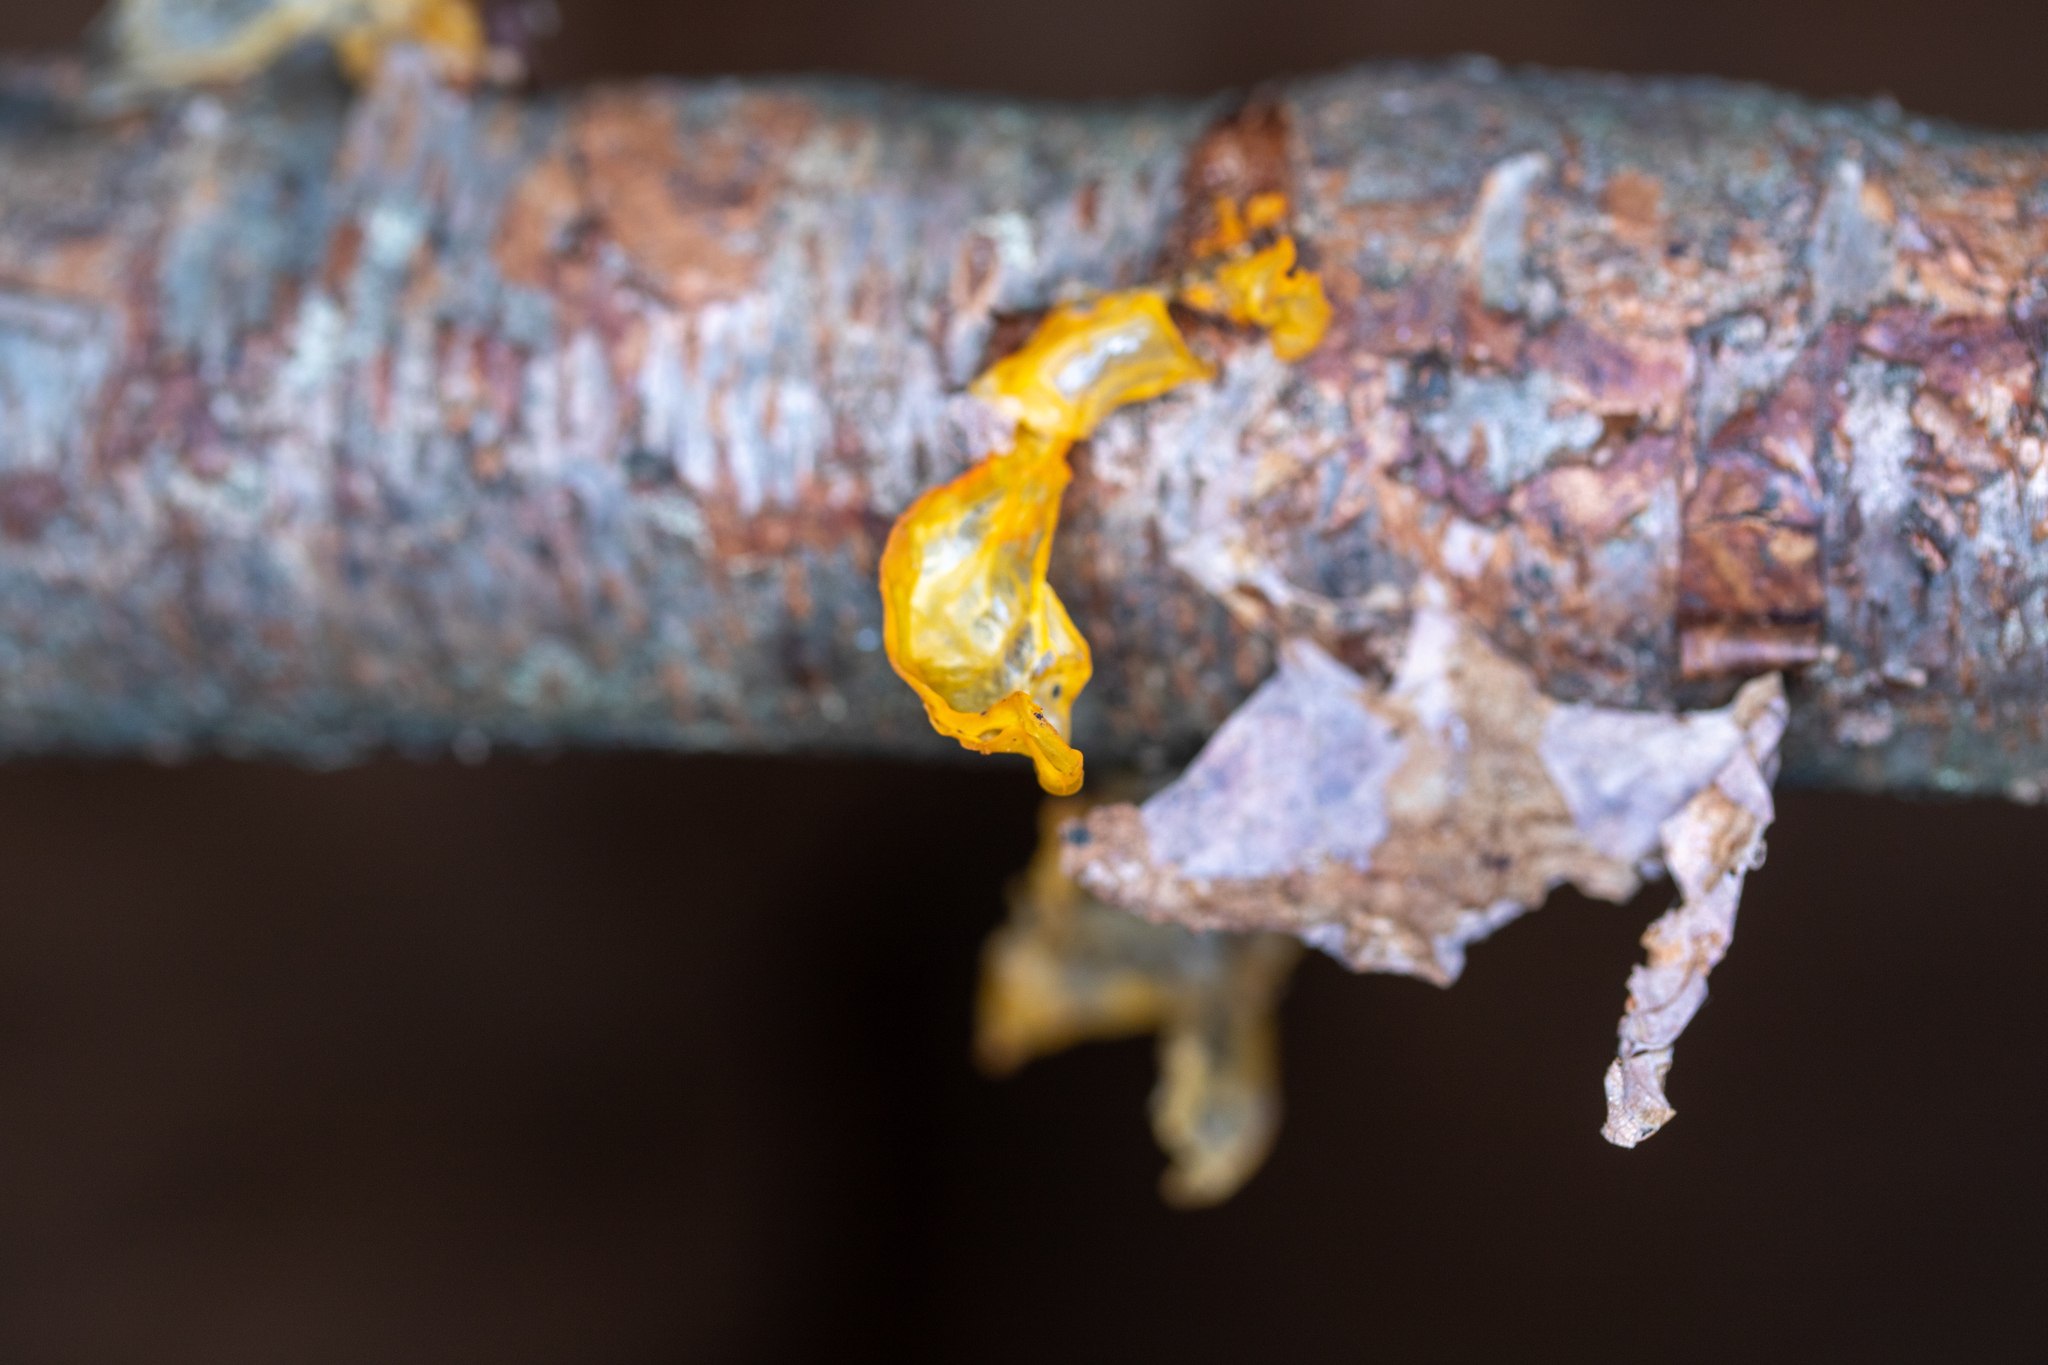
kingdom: Fungi
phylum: Basidiomycota
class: Dacrymycetes
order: Dacrymycetales
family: Dacrymycetaceae
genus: Dacrymyces
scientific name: Dacrymyces chrysospermus
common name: Orange jelly spot
